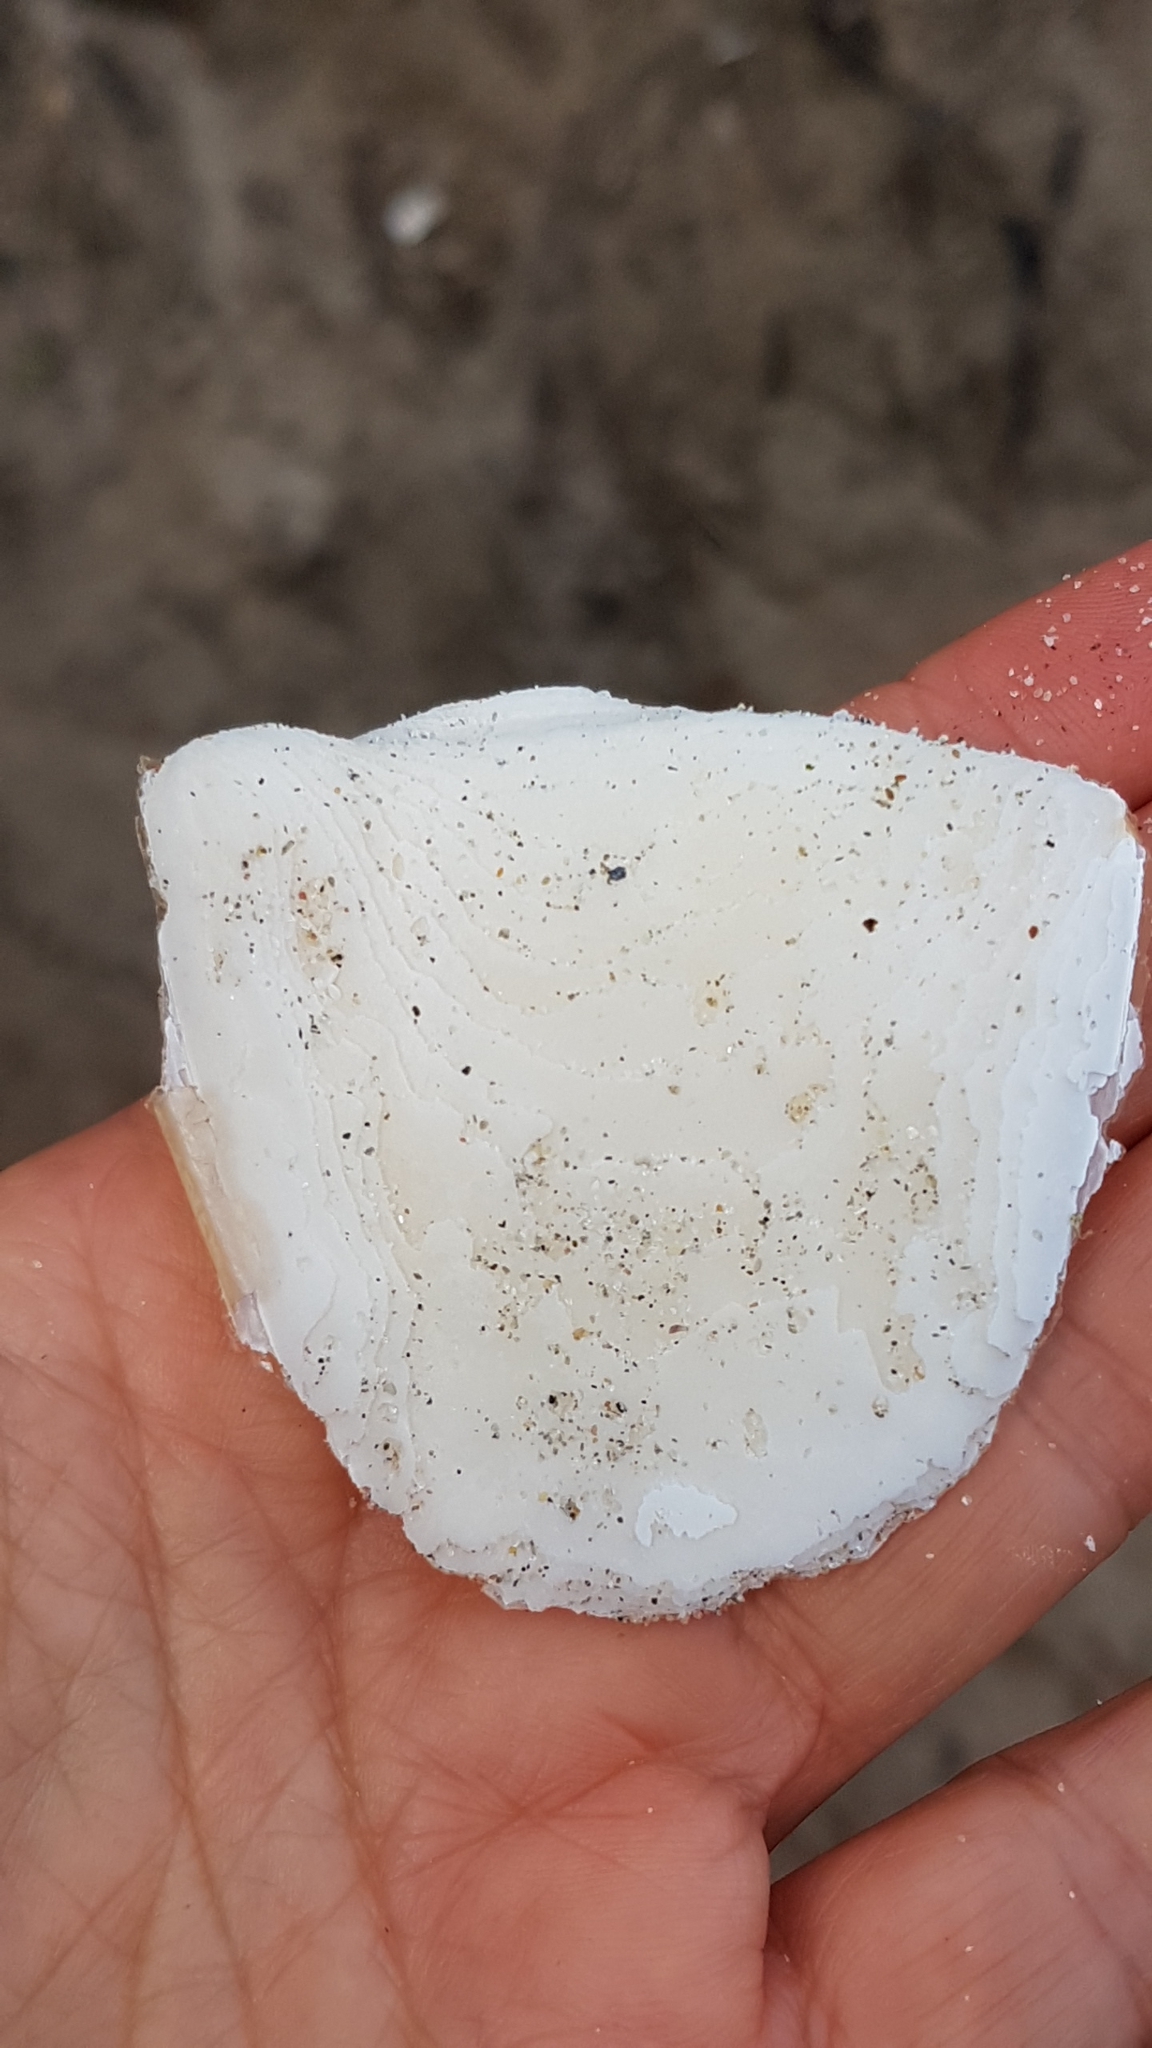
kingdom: Animalia
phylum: Mollusca
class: Cephalopoda
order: Sepiida
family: Sepiidae
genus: Sepia
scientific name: Sepia officinalis
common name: Common cuttlefish
